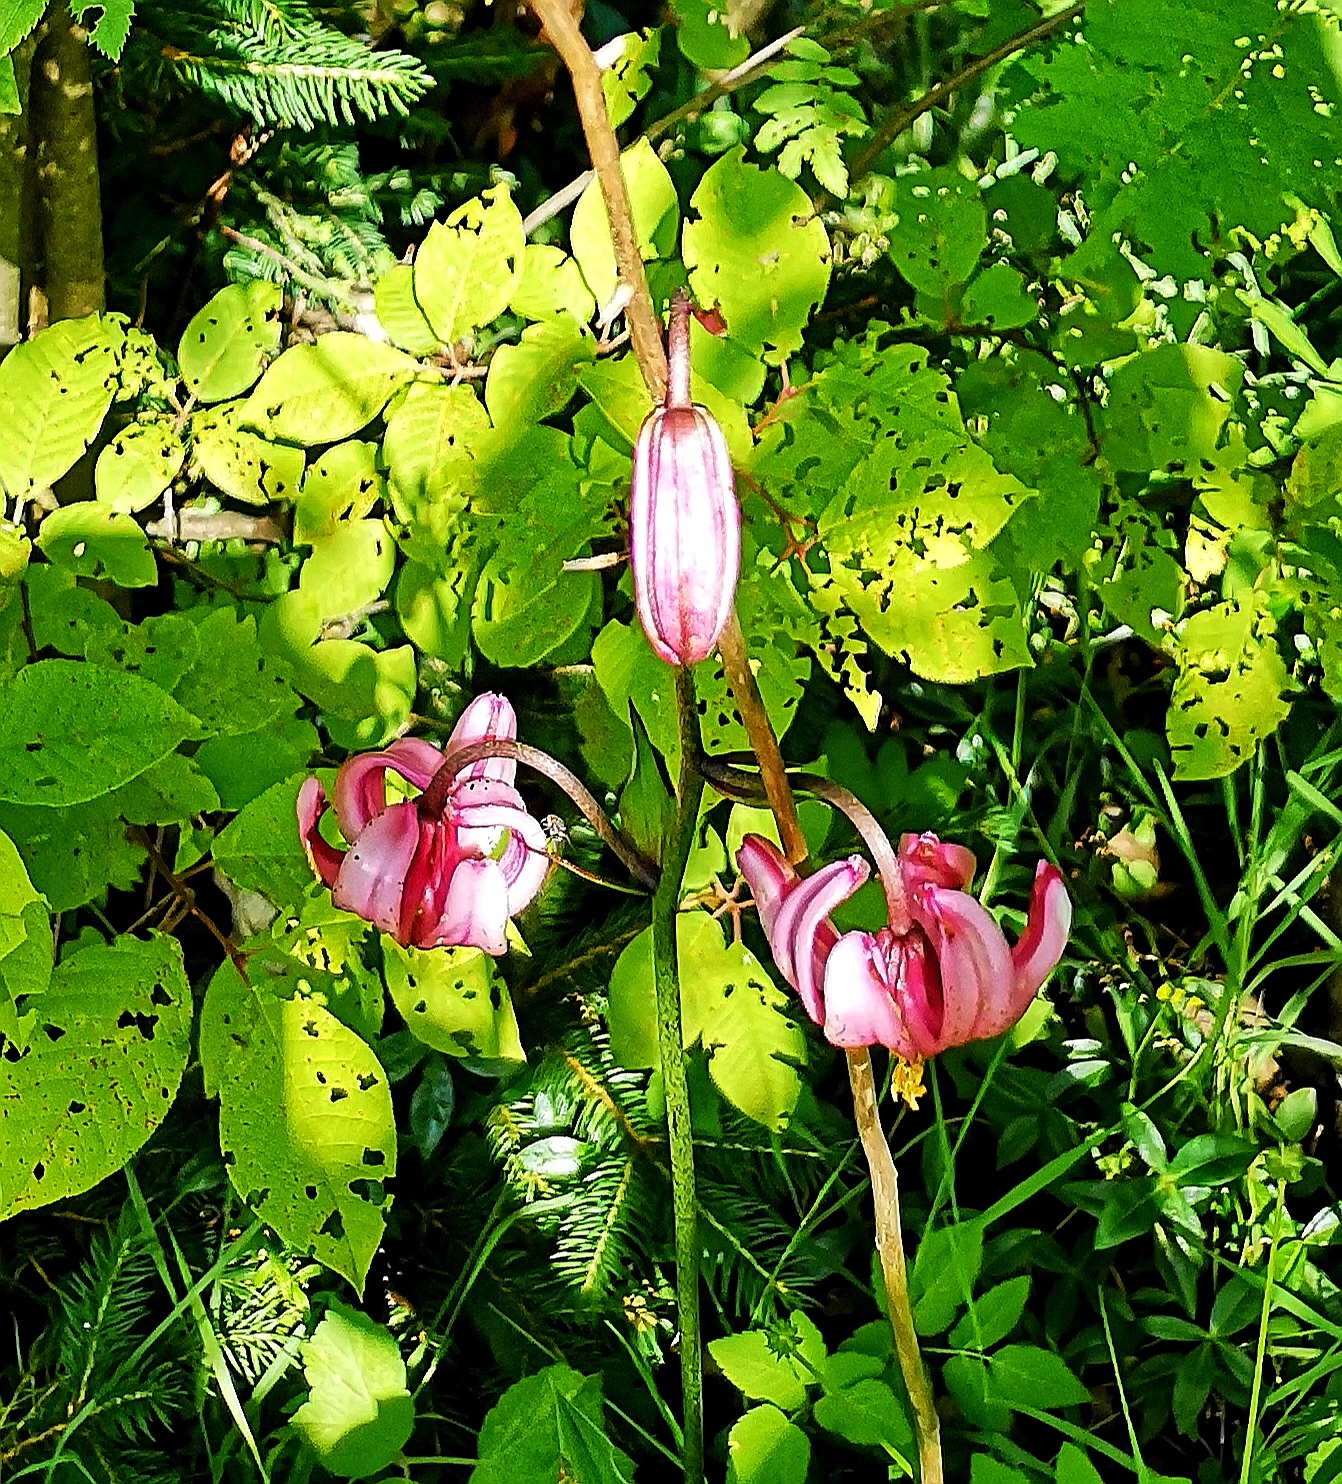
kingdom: Plantae
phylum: Tracheophyta
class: Liliopsida
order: Liliales
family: Liliaceae
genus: Lilium
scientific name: Lilium martagon
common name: Martagon lily
